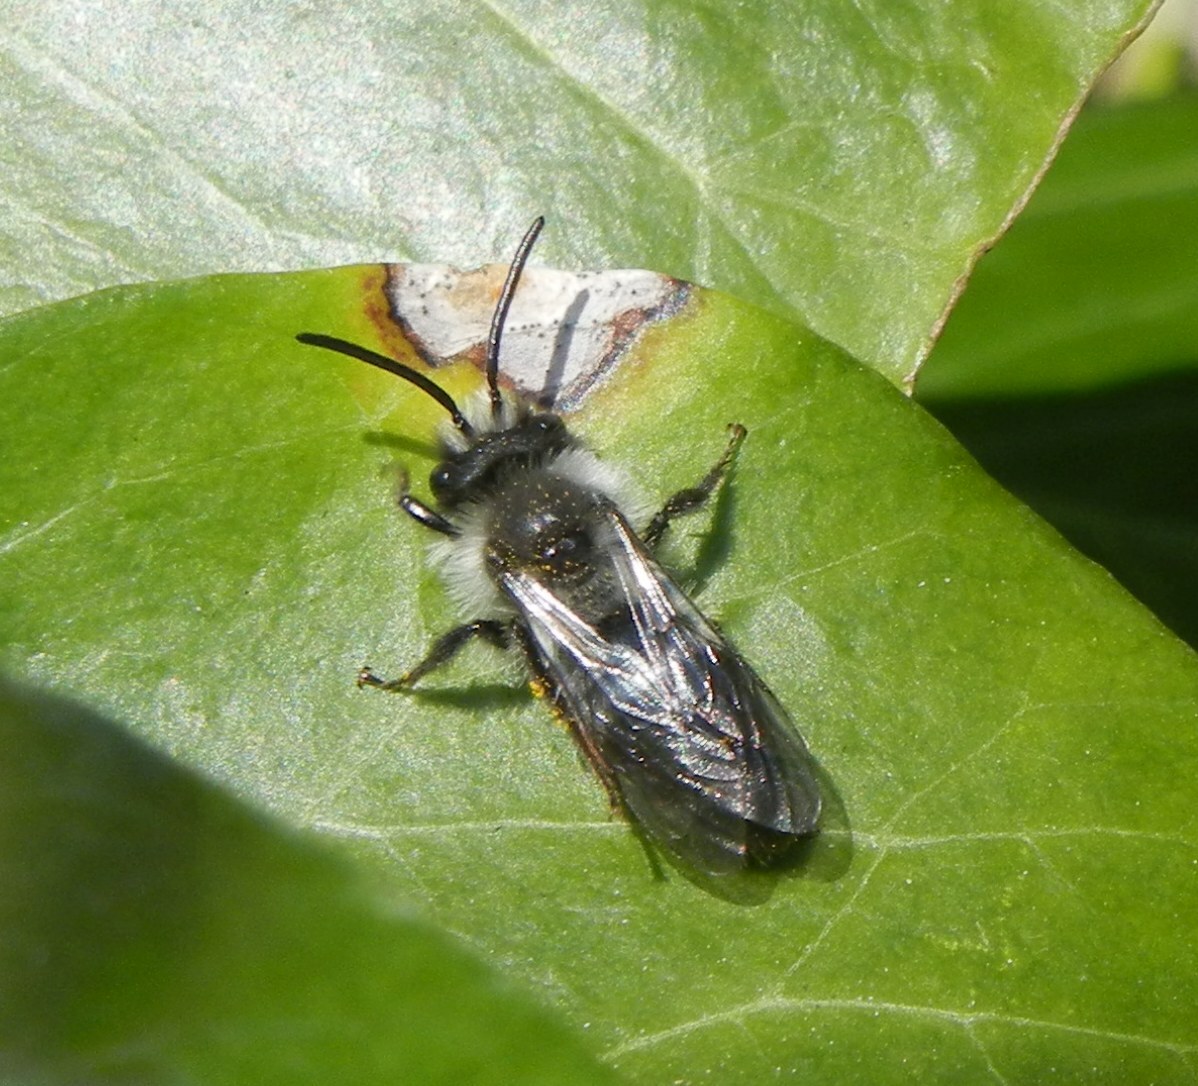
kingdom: Animalia
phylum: Arthropoda
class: Insecta
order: Hymenoptera
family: Andrenidae
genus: Andrena
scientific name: Andrena cineraria
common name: Ashy mining bee
